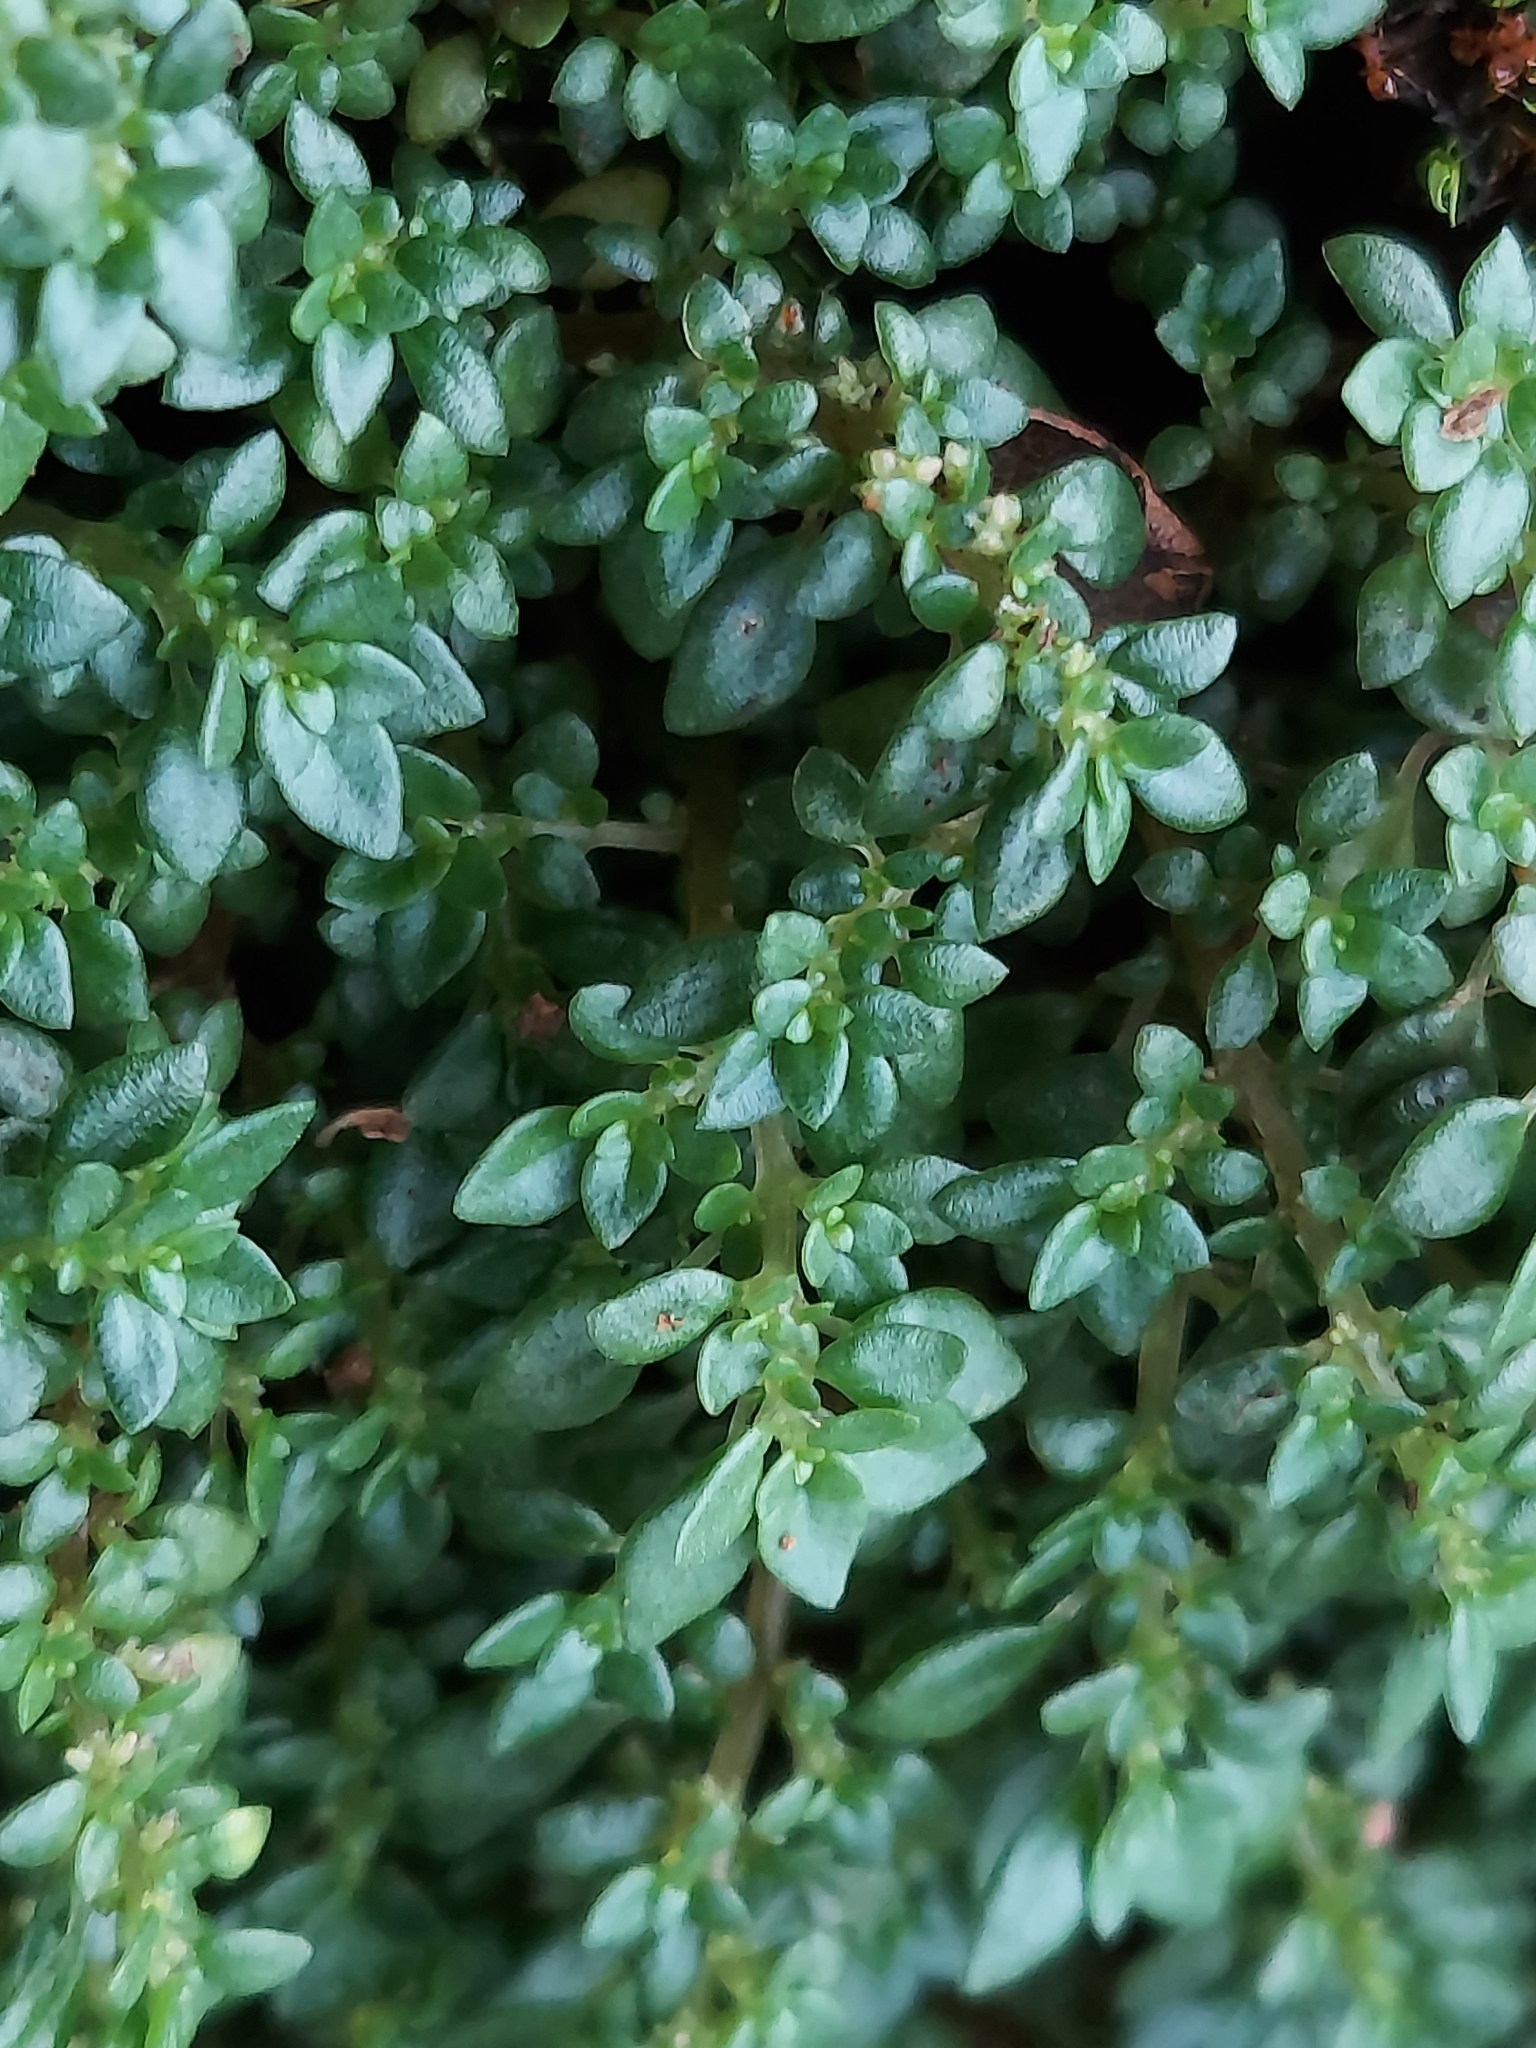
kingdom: Plantae
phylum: Tracheophyta
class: Magnoliopsida
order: Rosales
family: Urticaceae
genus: Pilea
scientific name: Pilea microphylla
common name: Artillery-plant
